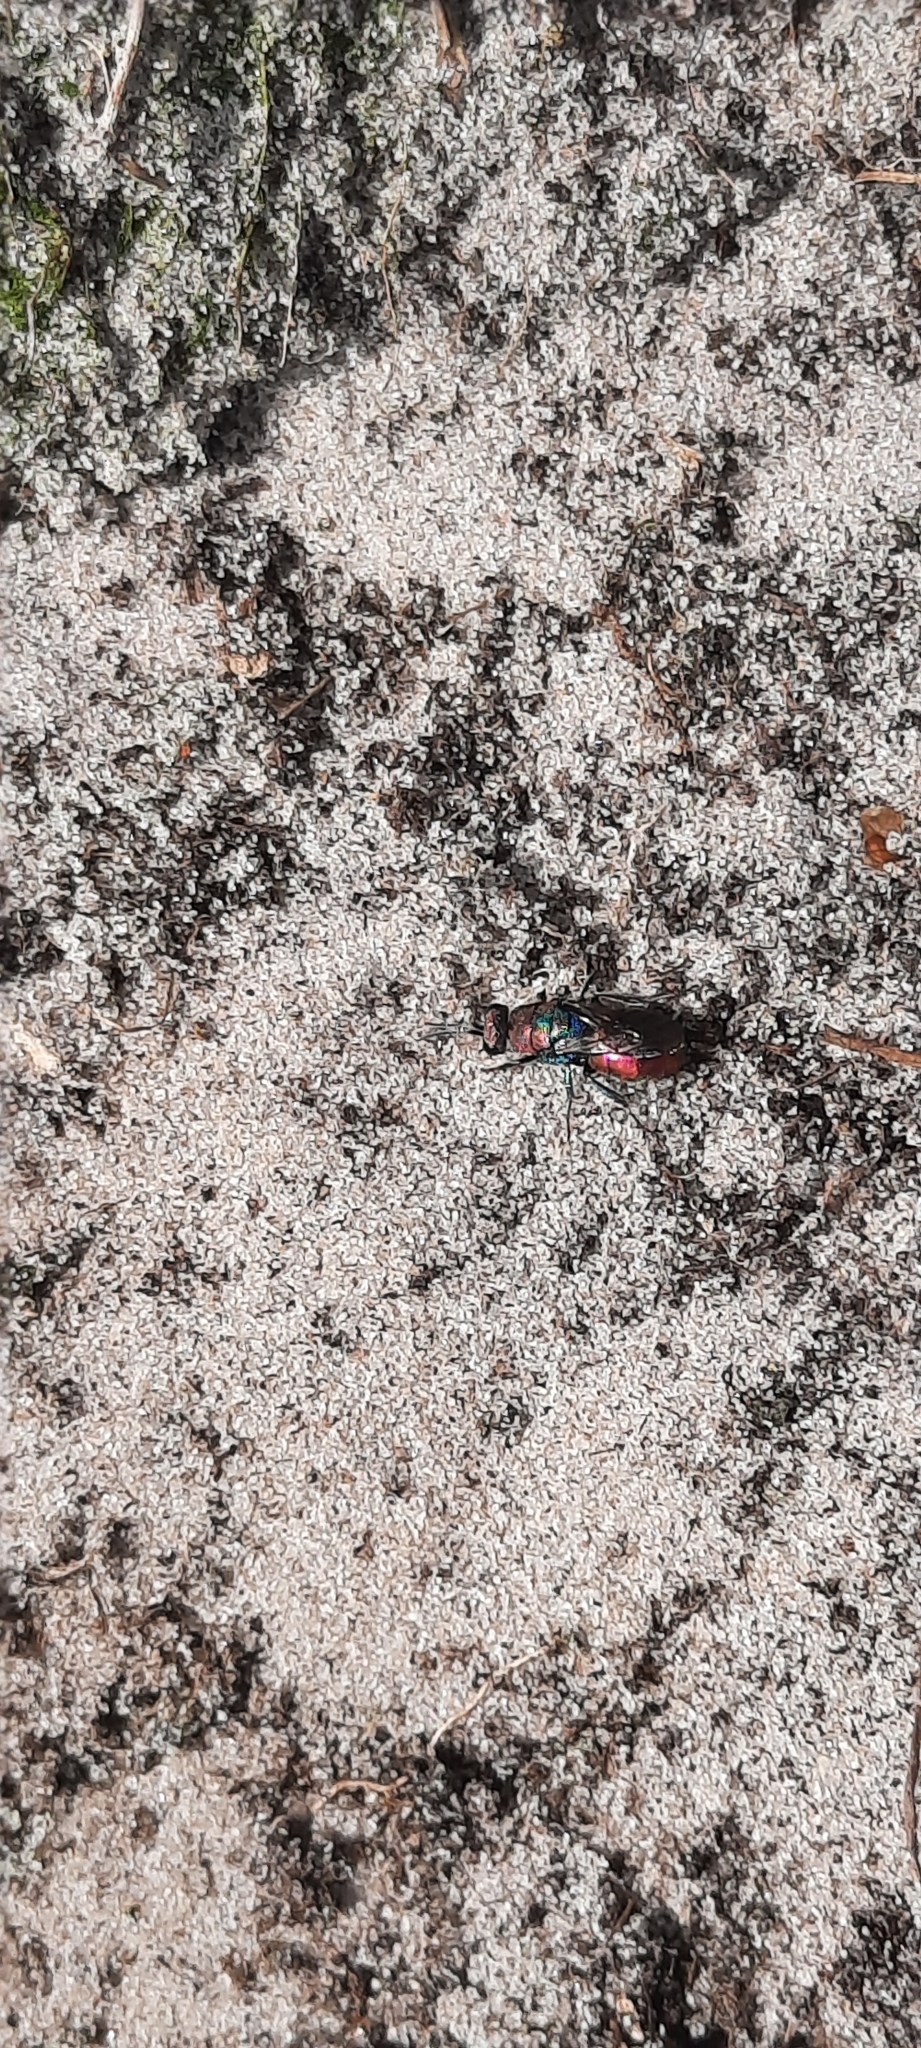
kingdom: Animalia
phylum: Arthropoda
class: Insecta
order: Hymenoptera
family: Chrysididae
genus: Hedychrum
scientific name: Hedychrum rutilans
